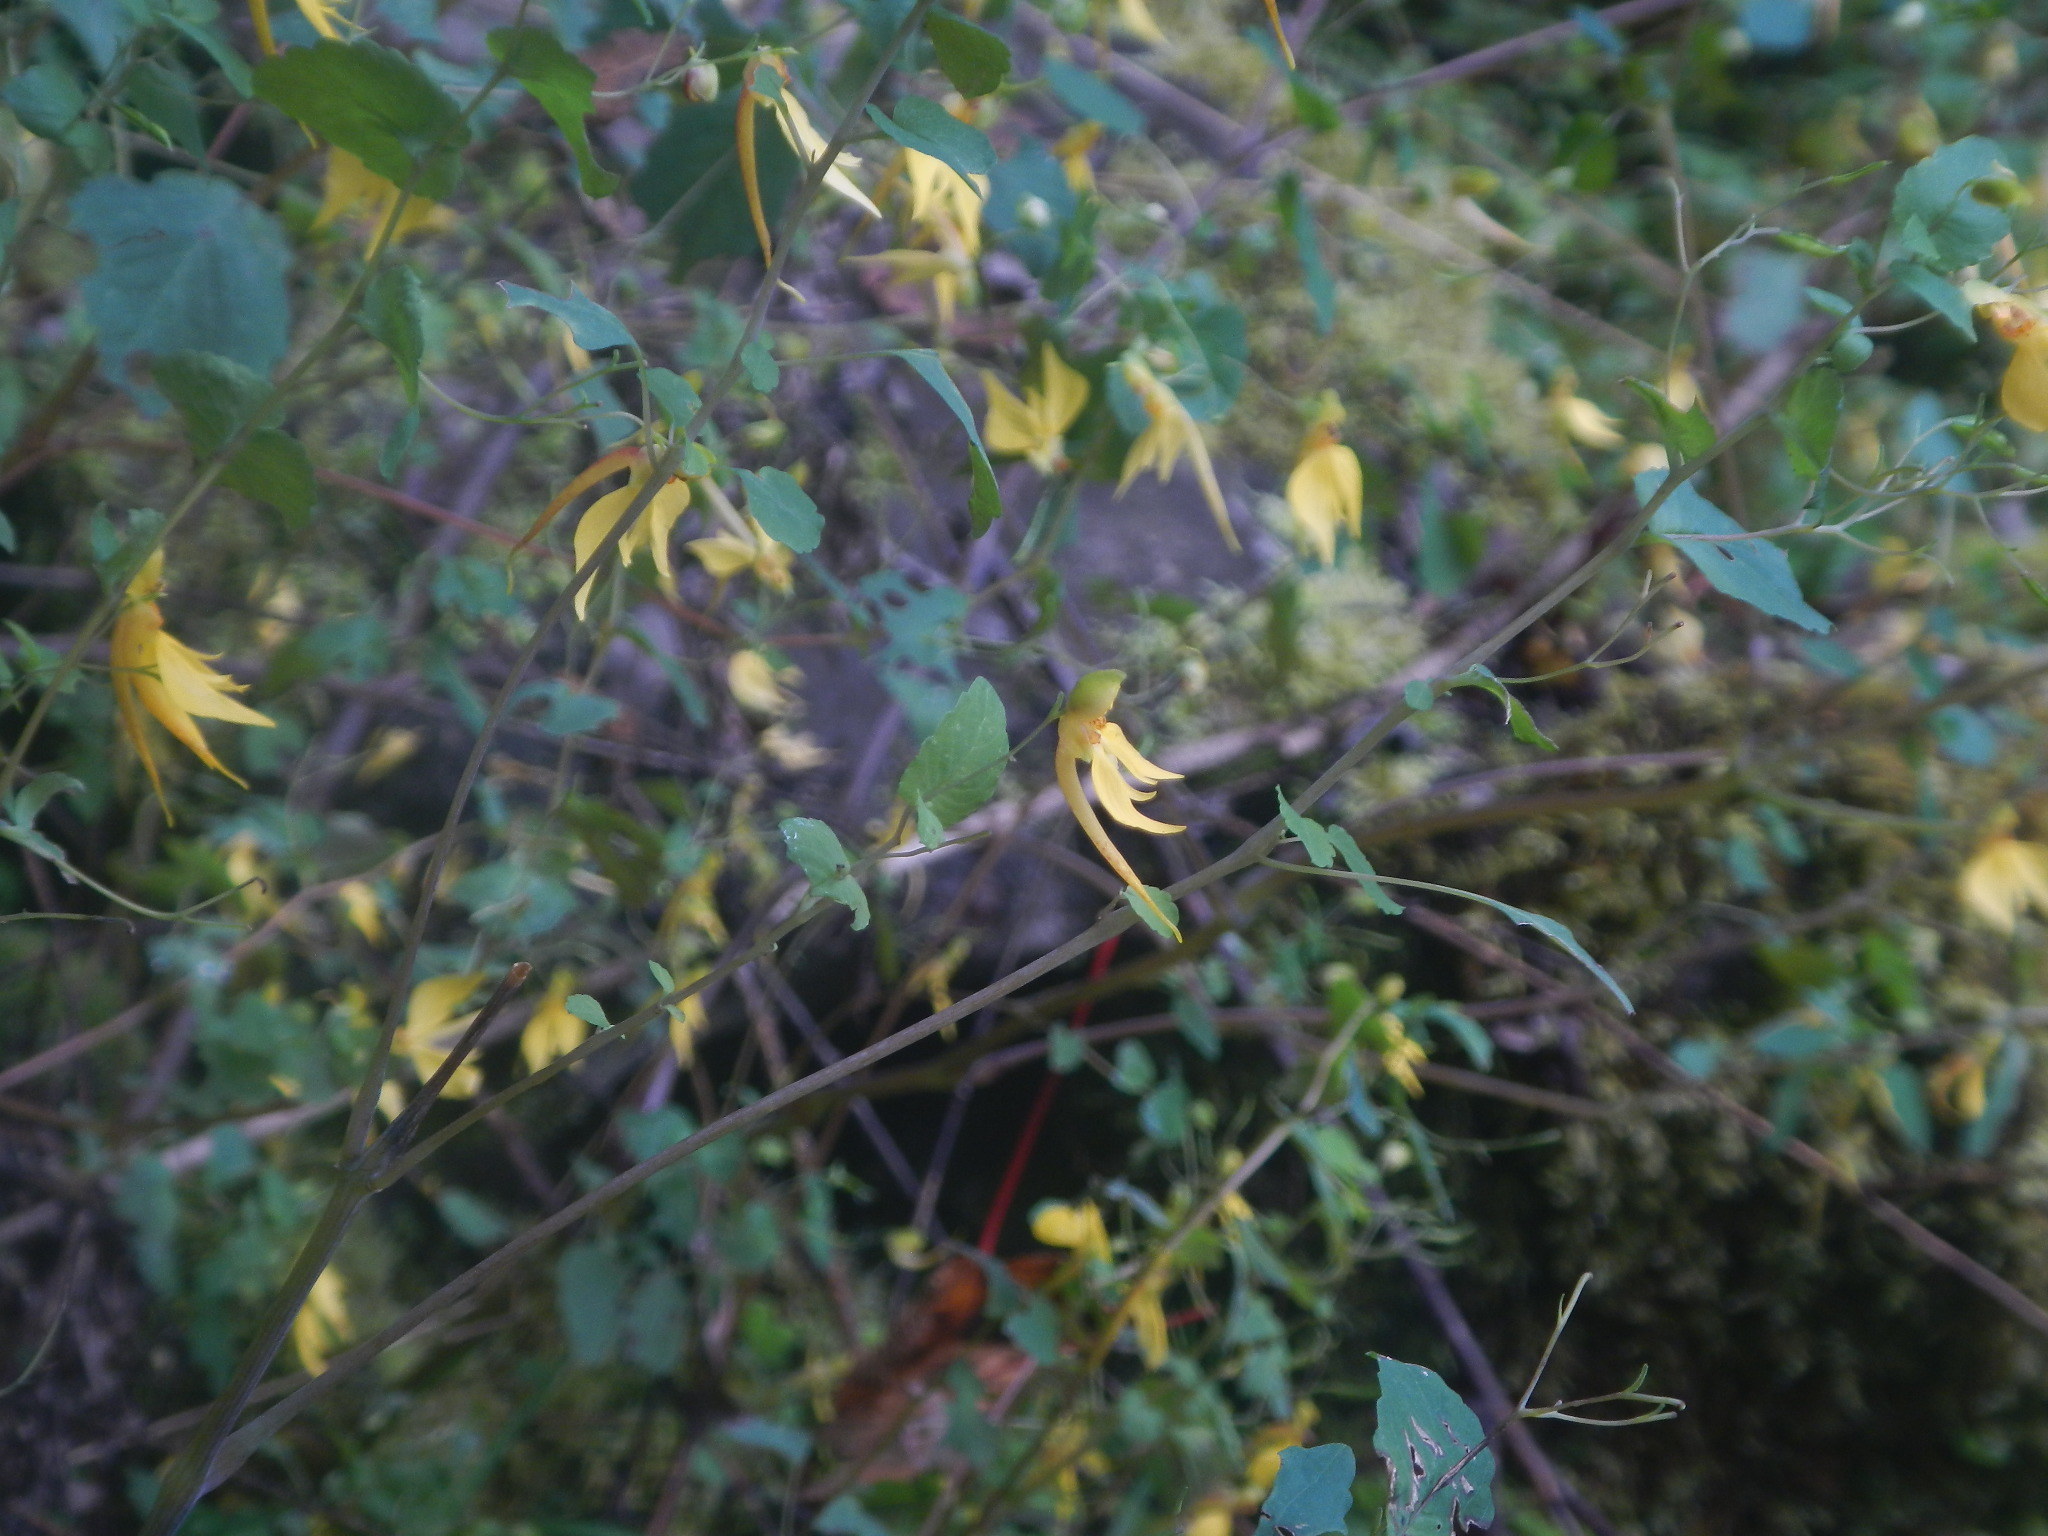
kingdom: Plantae
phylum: Tracheophyta
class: Magnoliopsida
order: Ericales
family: Balsaminaceae
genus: Impatiens
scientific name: Impatiens undulata
